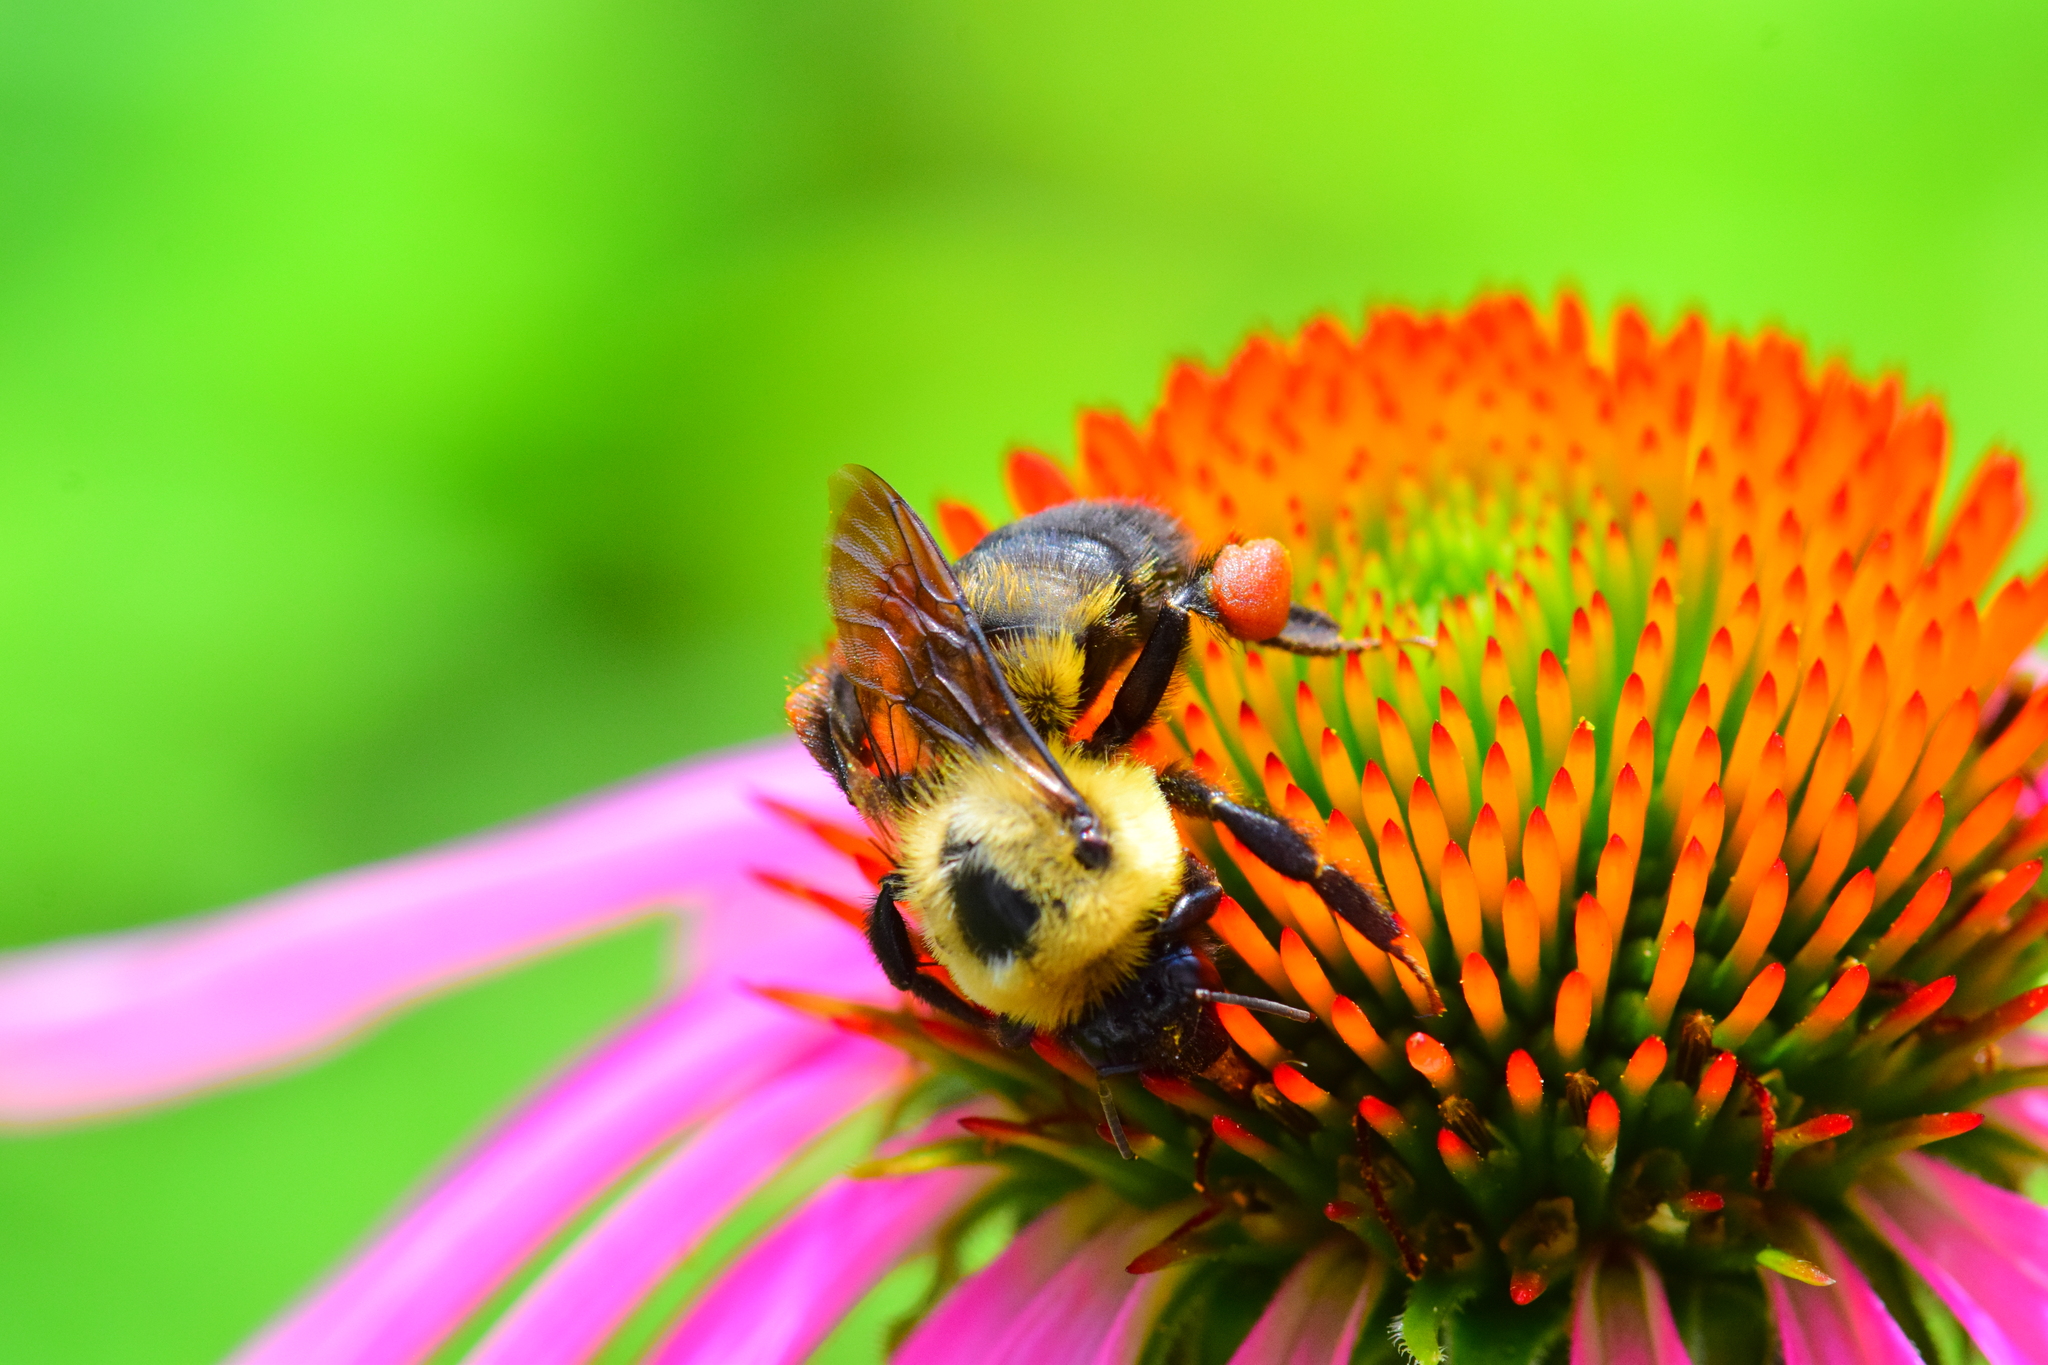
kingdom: Animalia
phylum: Arthropoda
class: Insecta
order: Hymenoptera
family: Apidae
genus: Bombus
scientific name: Bombus griseocollis
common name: Brown-belted bumble bee
